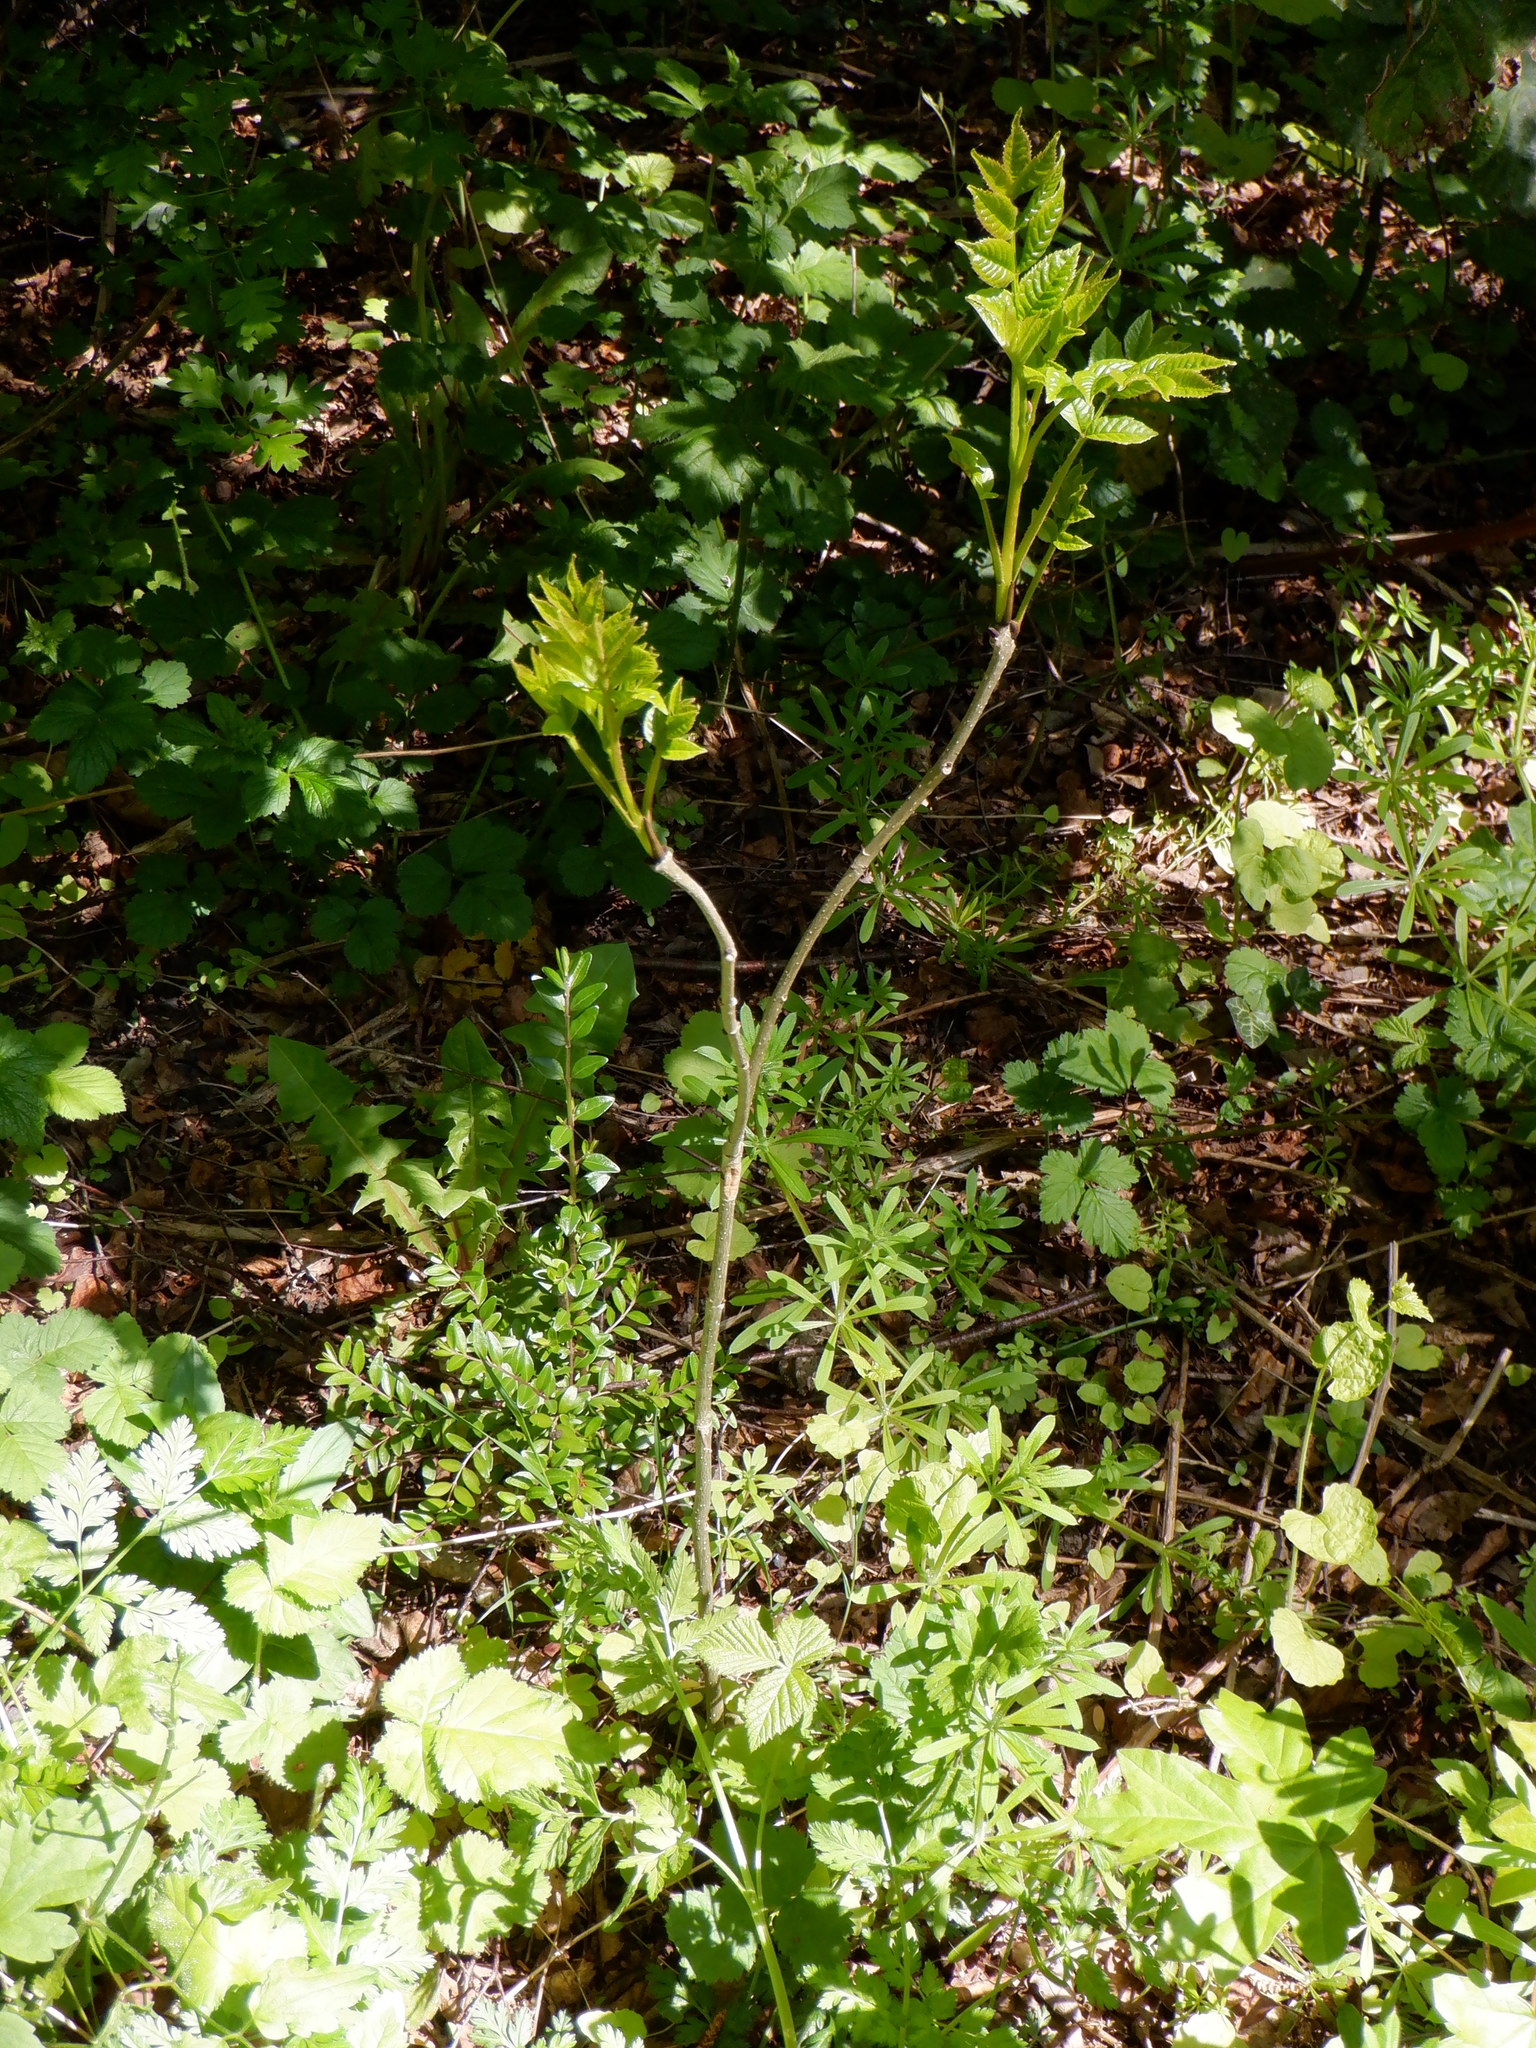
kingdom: Plantae
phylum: Tracheophyta
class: Magnoliopsida
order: Lamiales
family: Oleaceae
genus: Fraxinus
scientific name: Fraxinus excelsior
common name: European ash
